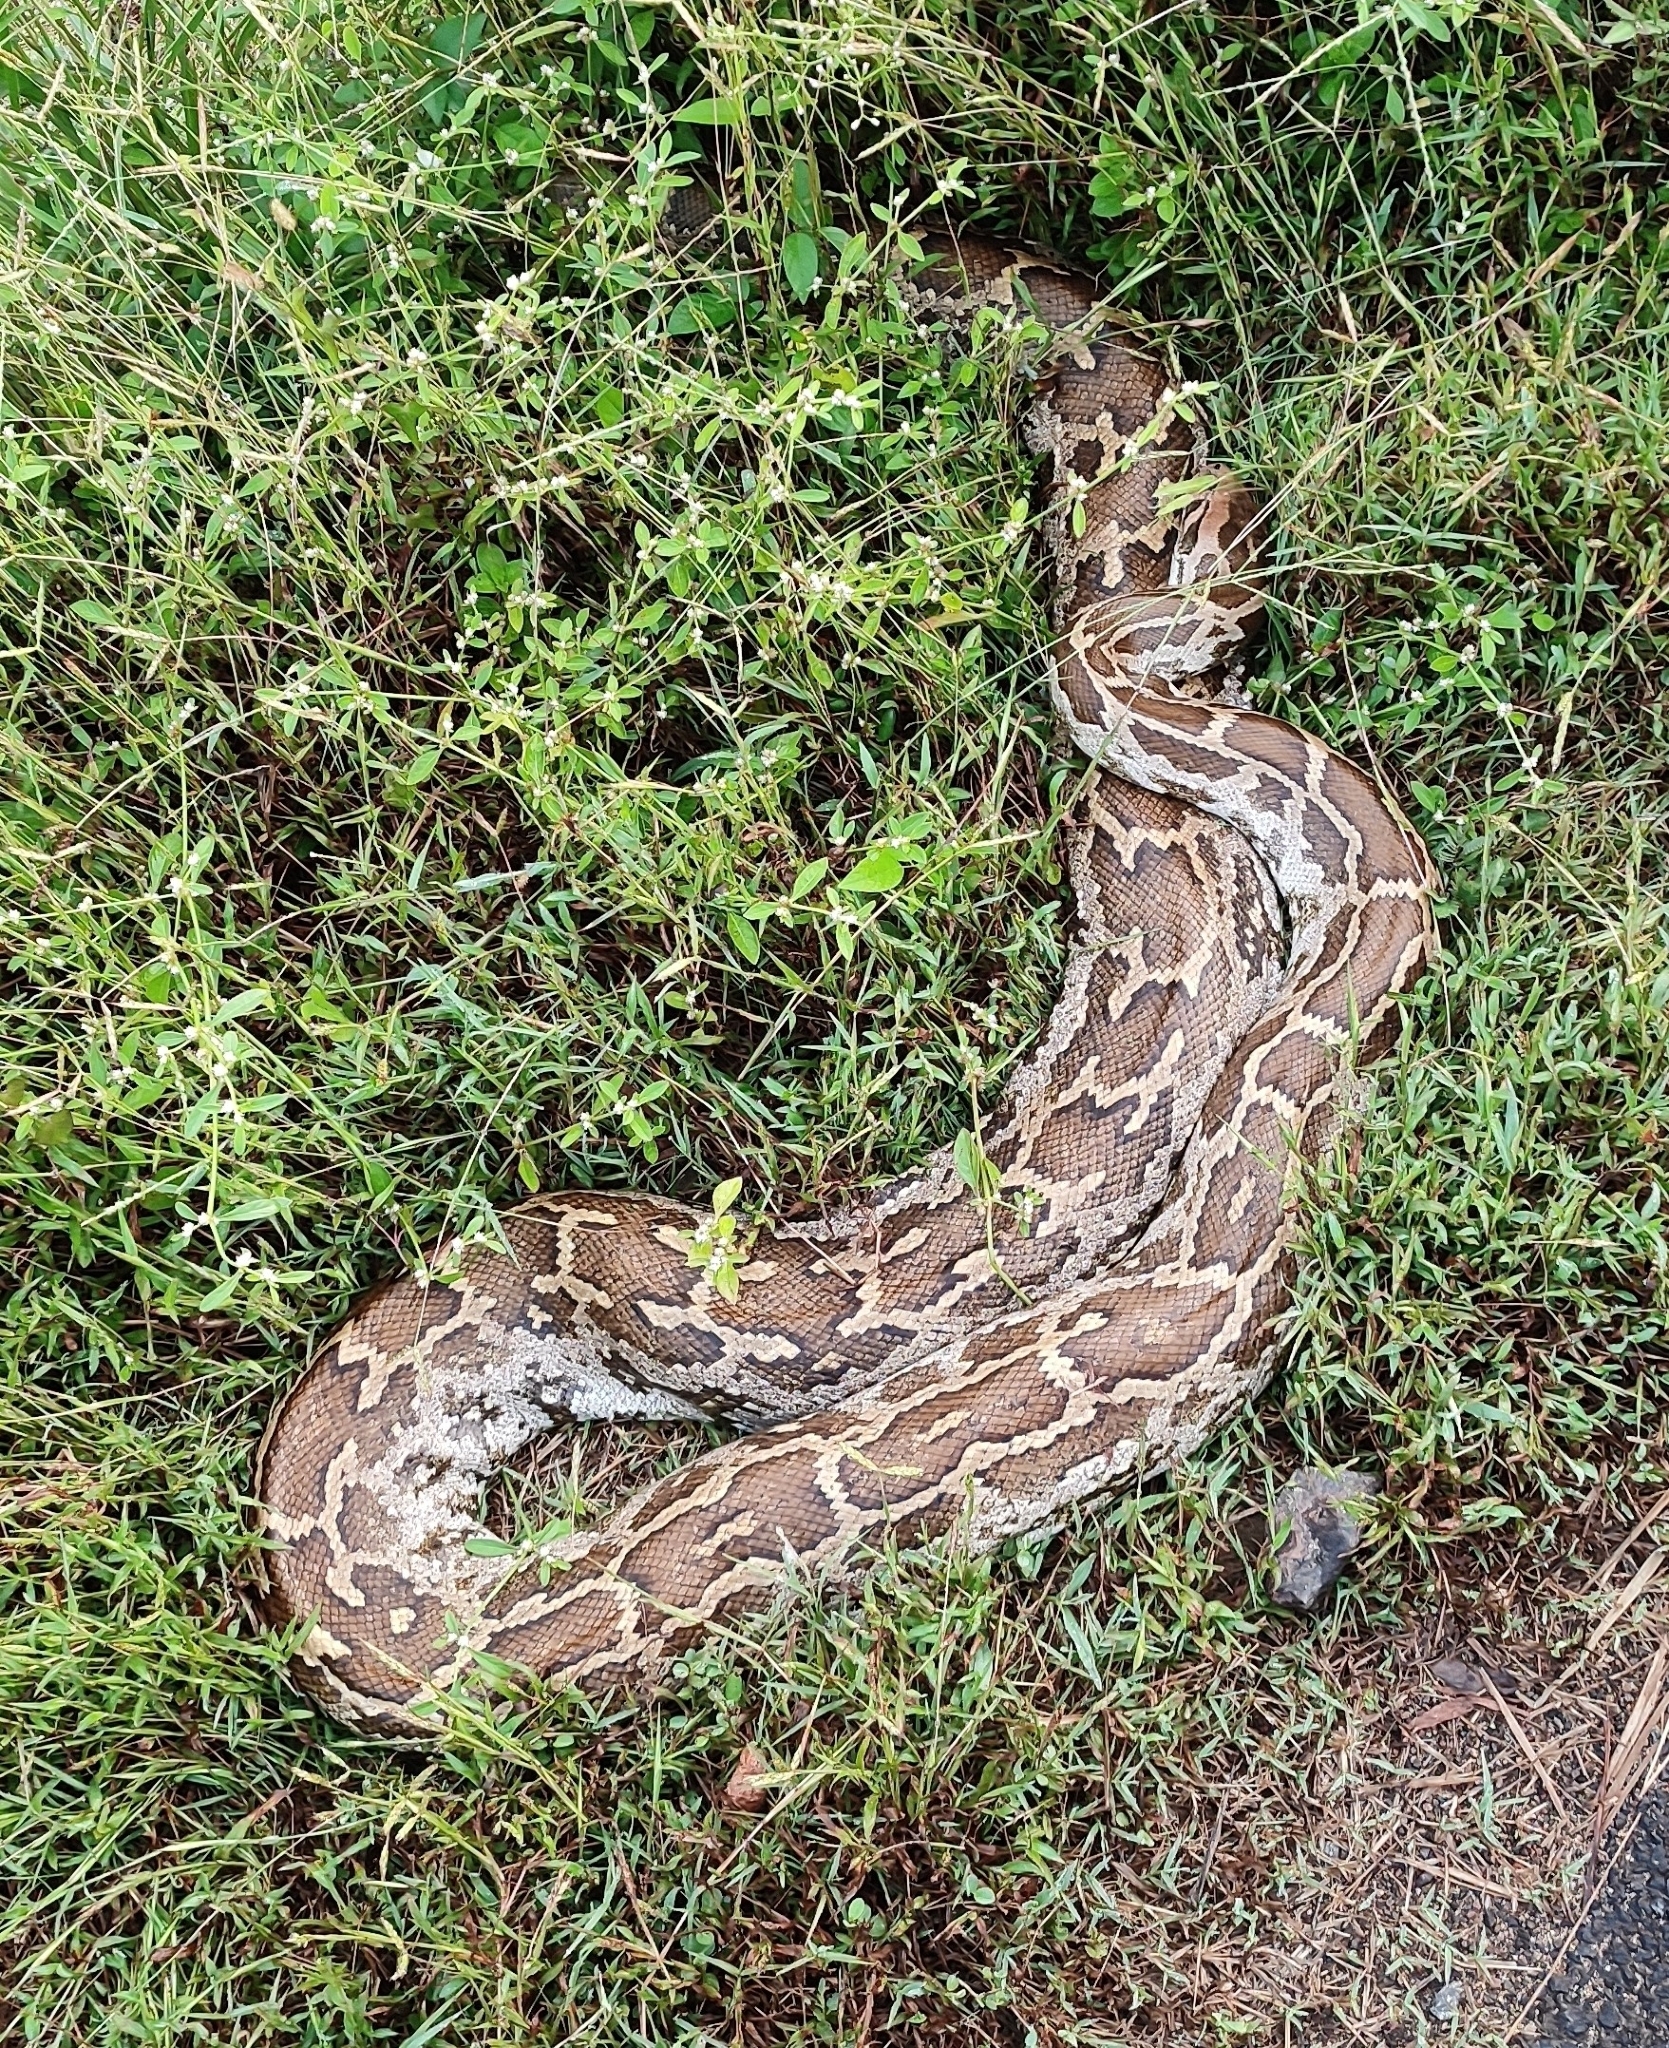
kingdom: Animalia
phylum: Chordata
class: Squamata
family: Pythonidae
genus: Python
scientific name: Python molurus
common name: Indian rock python
